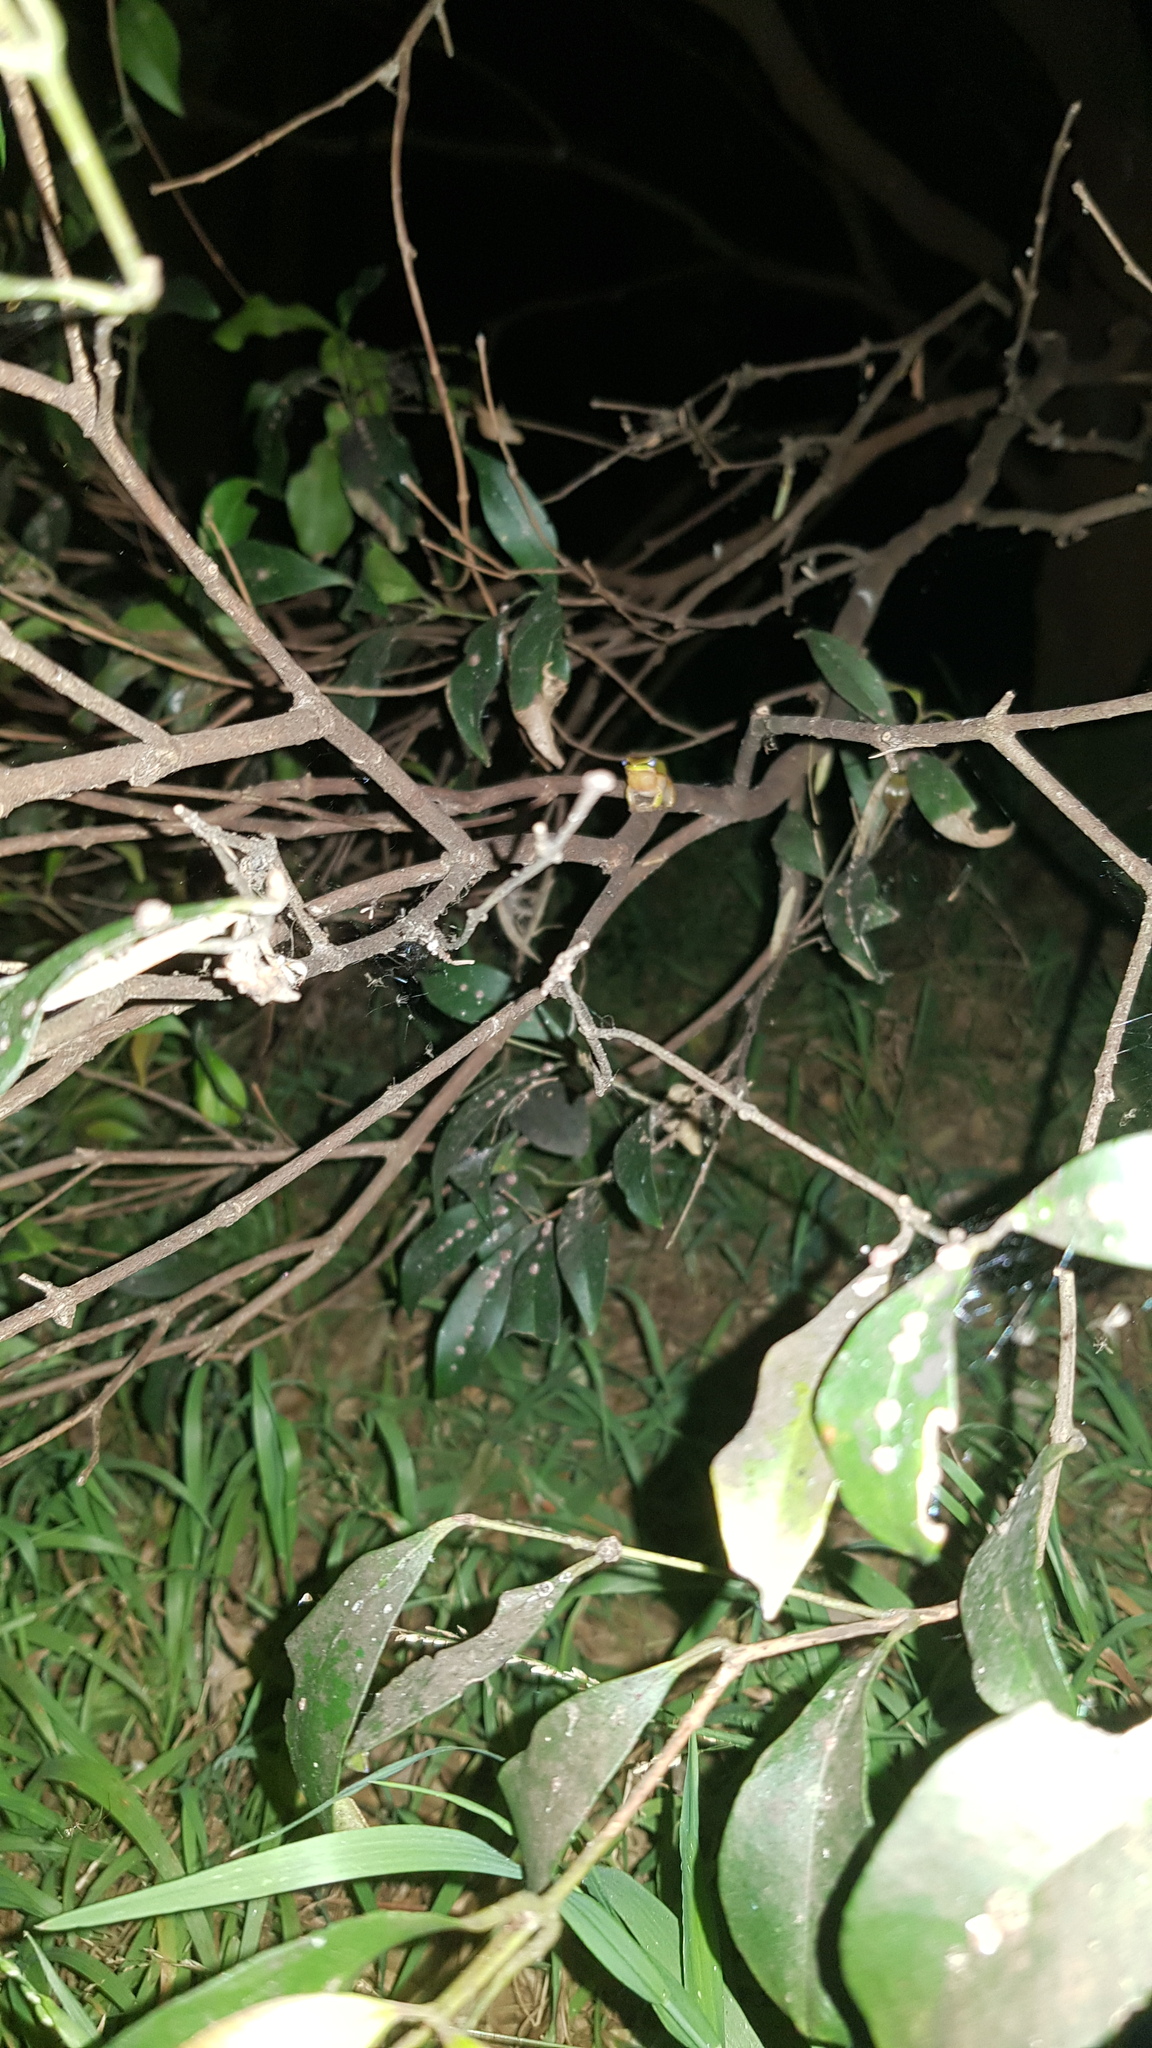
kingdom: Animalia
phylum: Chordata
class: Amphibia
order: Anura
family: Pelodryadidae
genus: Litoria
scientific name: Litoria fallax
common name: Eastern dwarf treefrog
